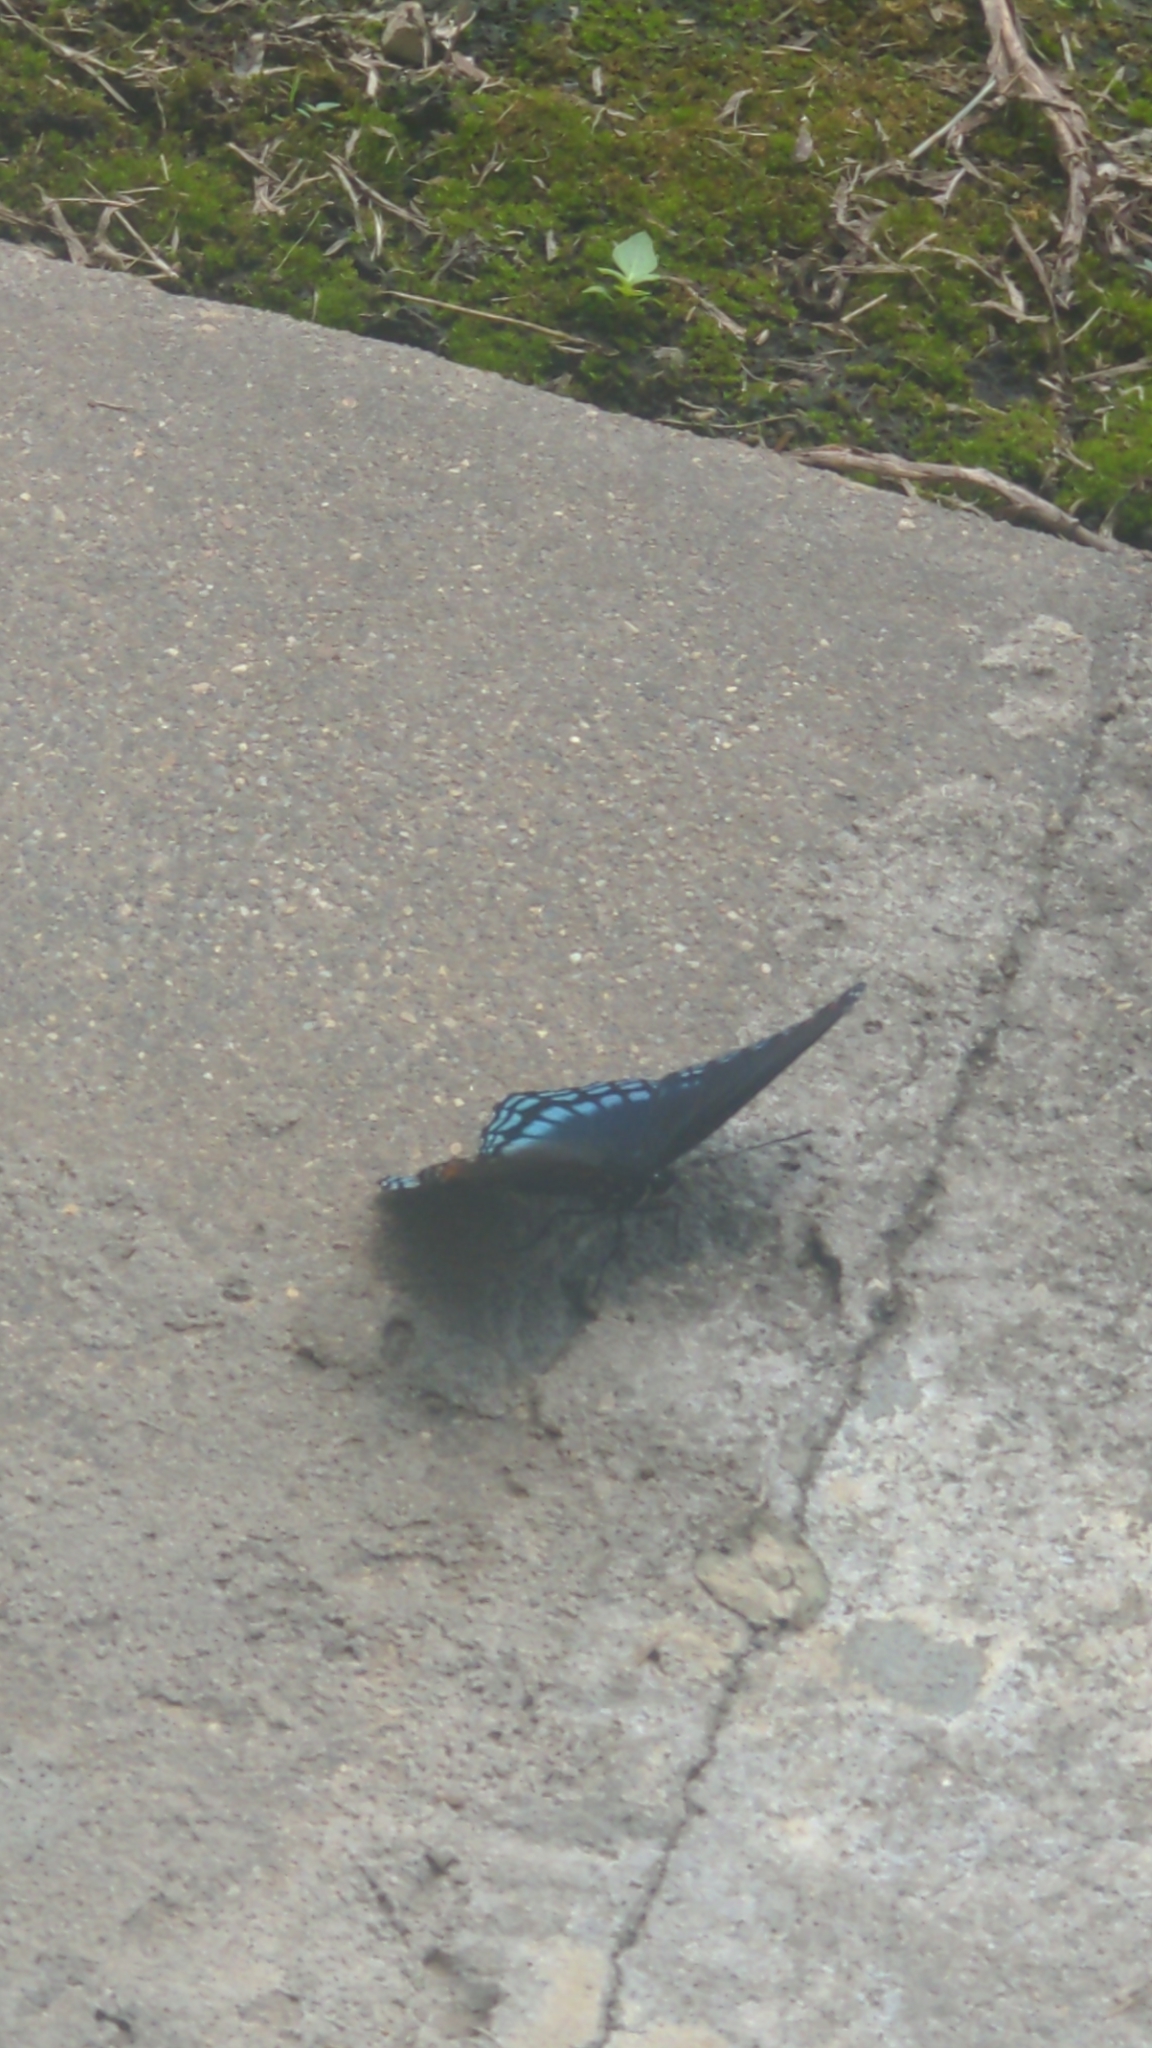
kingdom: Animalia
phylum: Arthropoda
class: Insecta
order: Lepidoptera
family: Nymphalidae
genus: Limenitis
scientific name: Limenitis arthemis
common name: Red-spotted admiral
